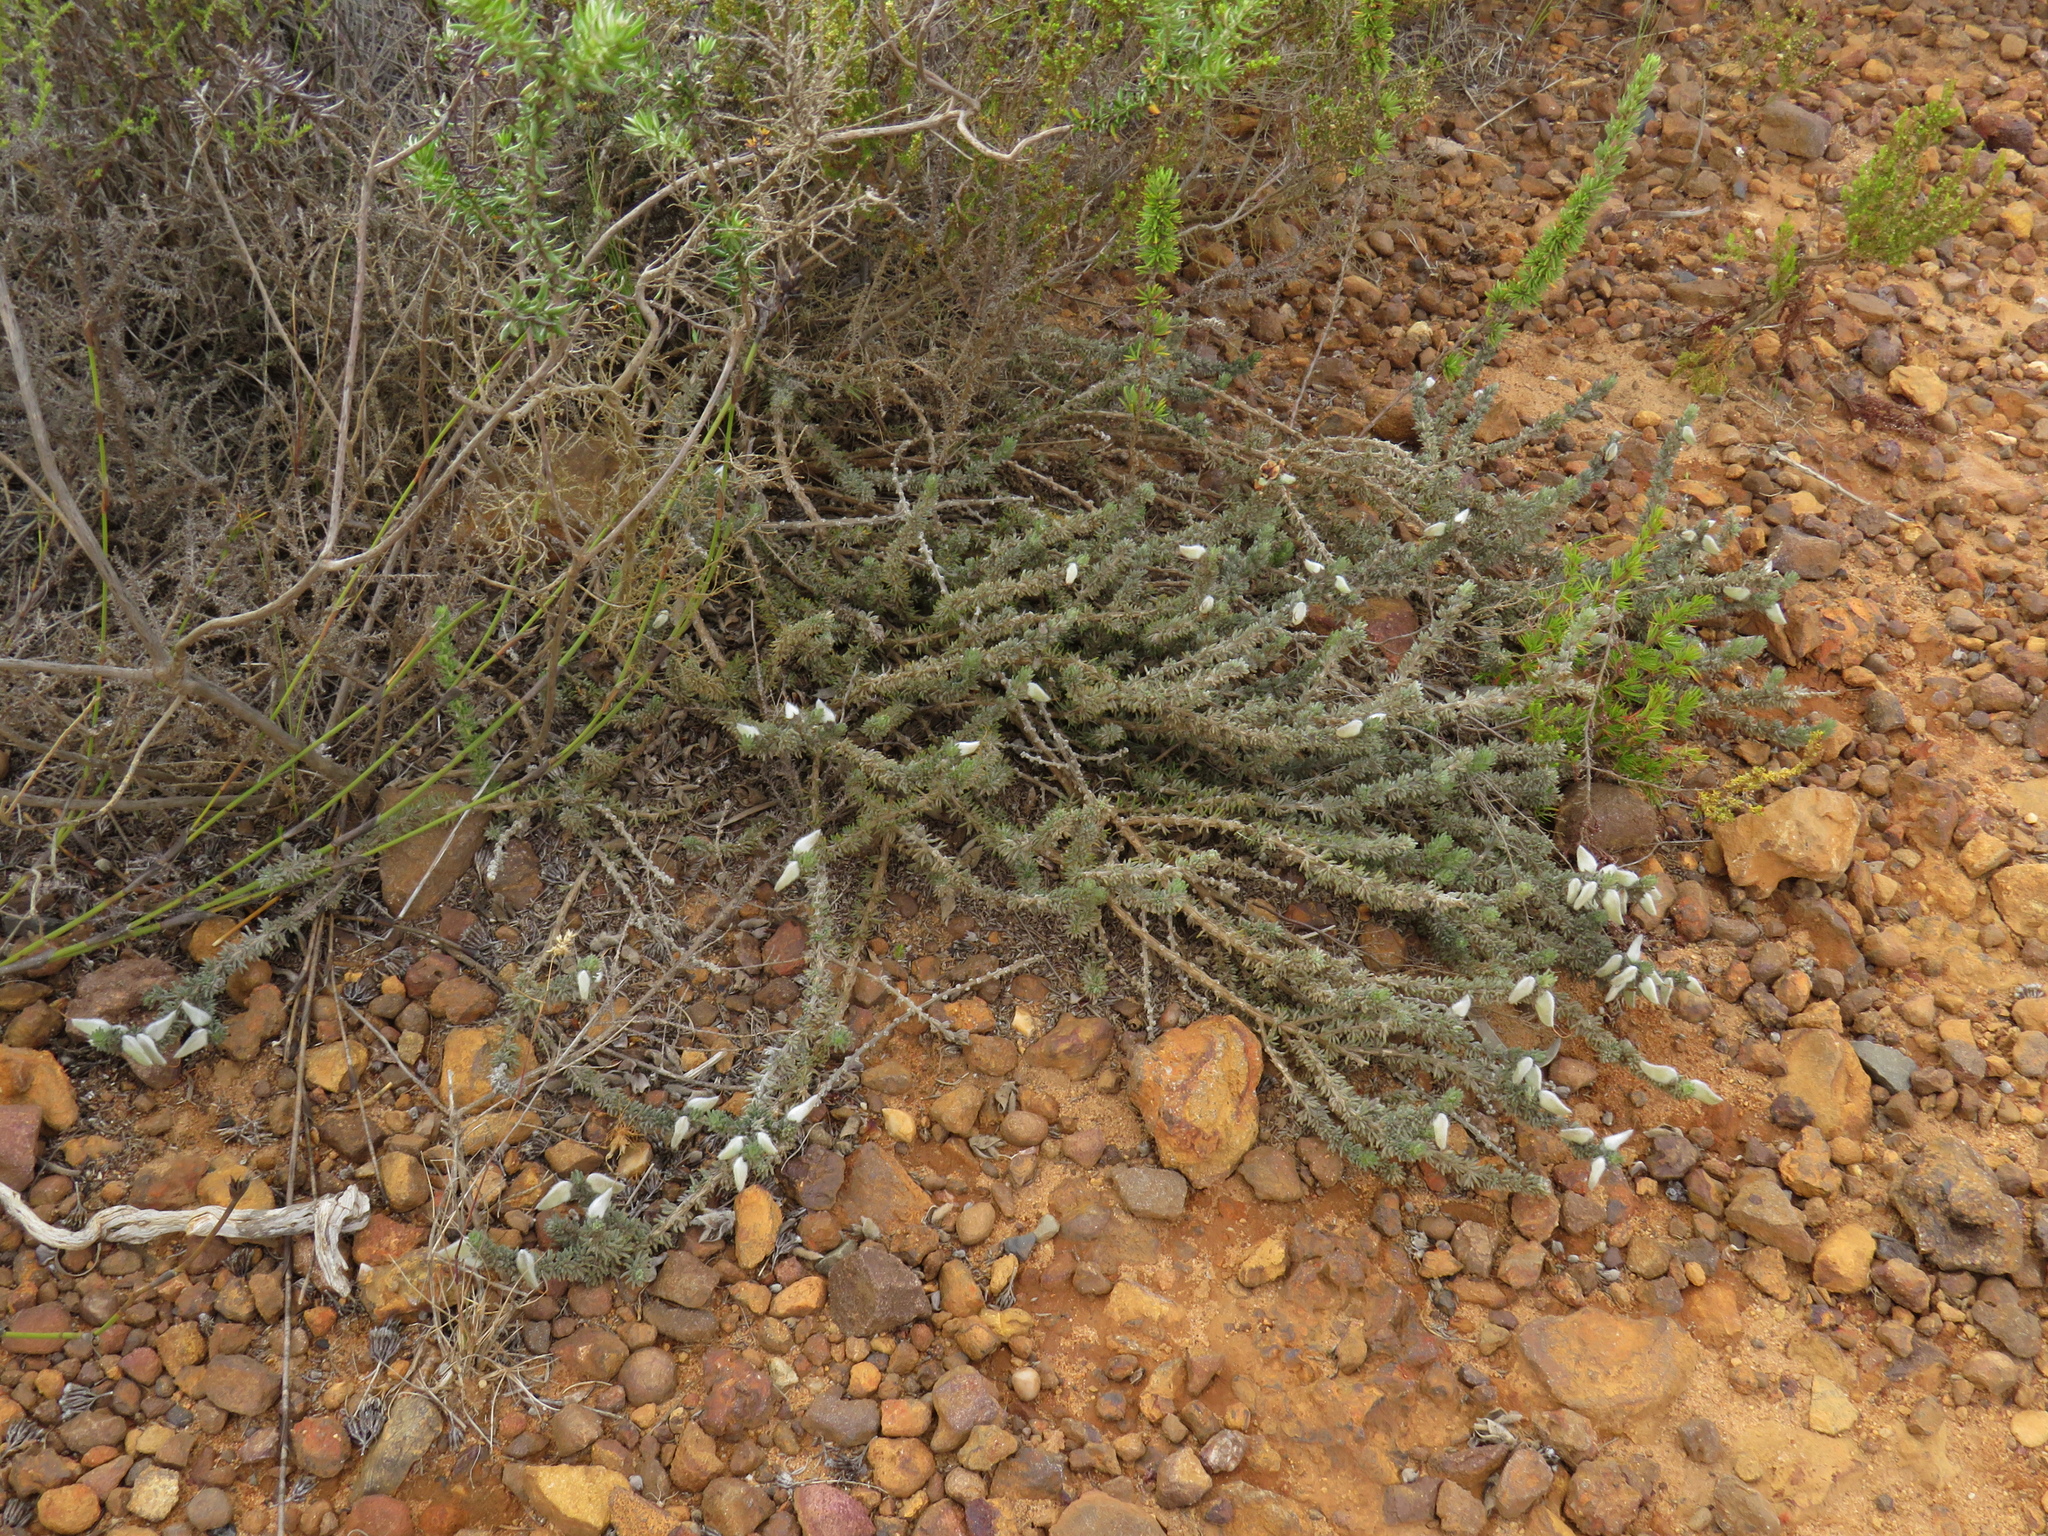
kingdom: Plantae
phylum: Tracheophyta
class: Magnoliopsida
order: Fabales
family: Fabaceae
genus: Aspalathus
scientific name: Aspalathus laricifolia
